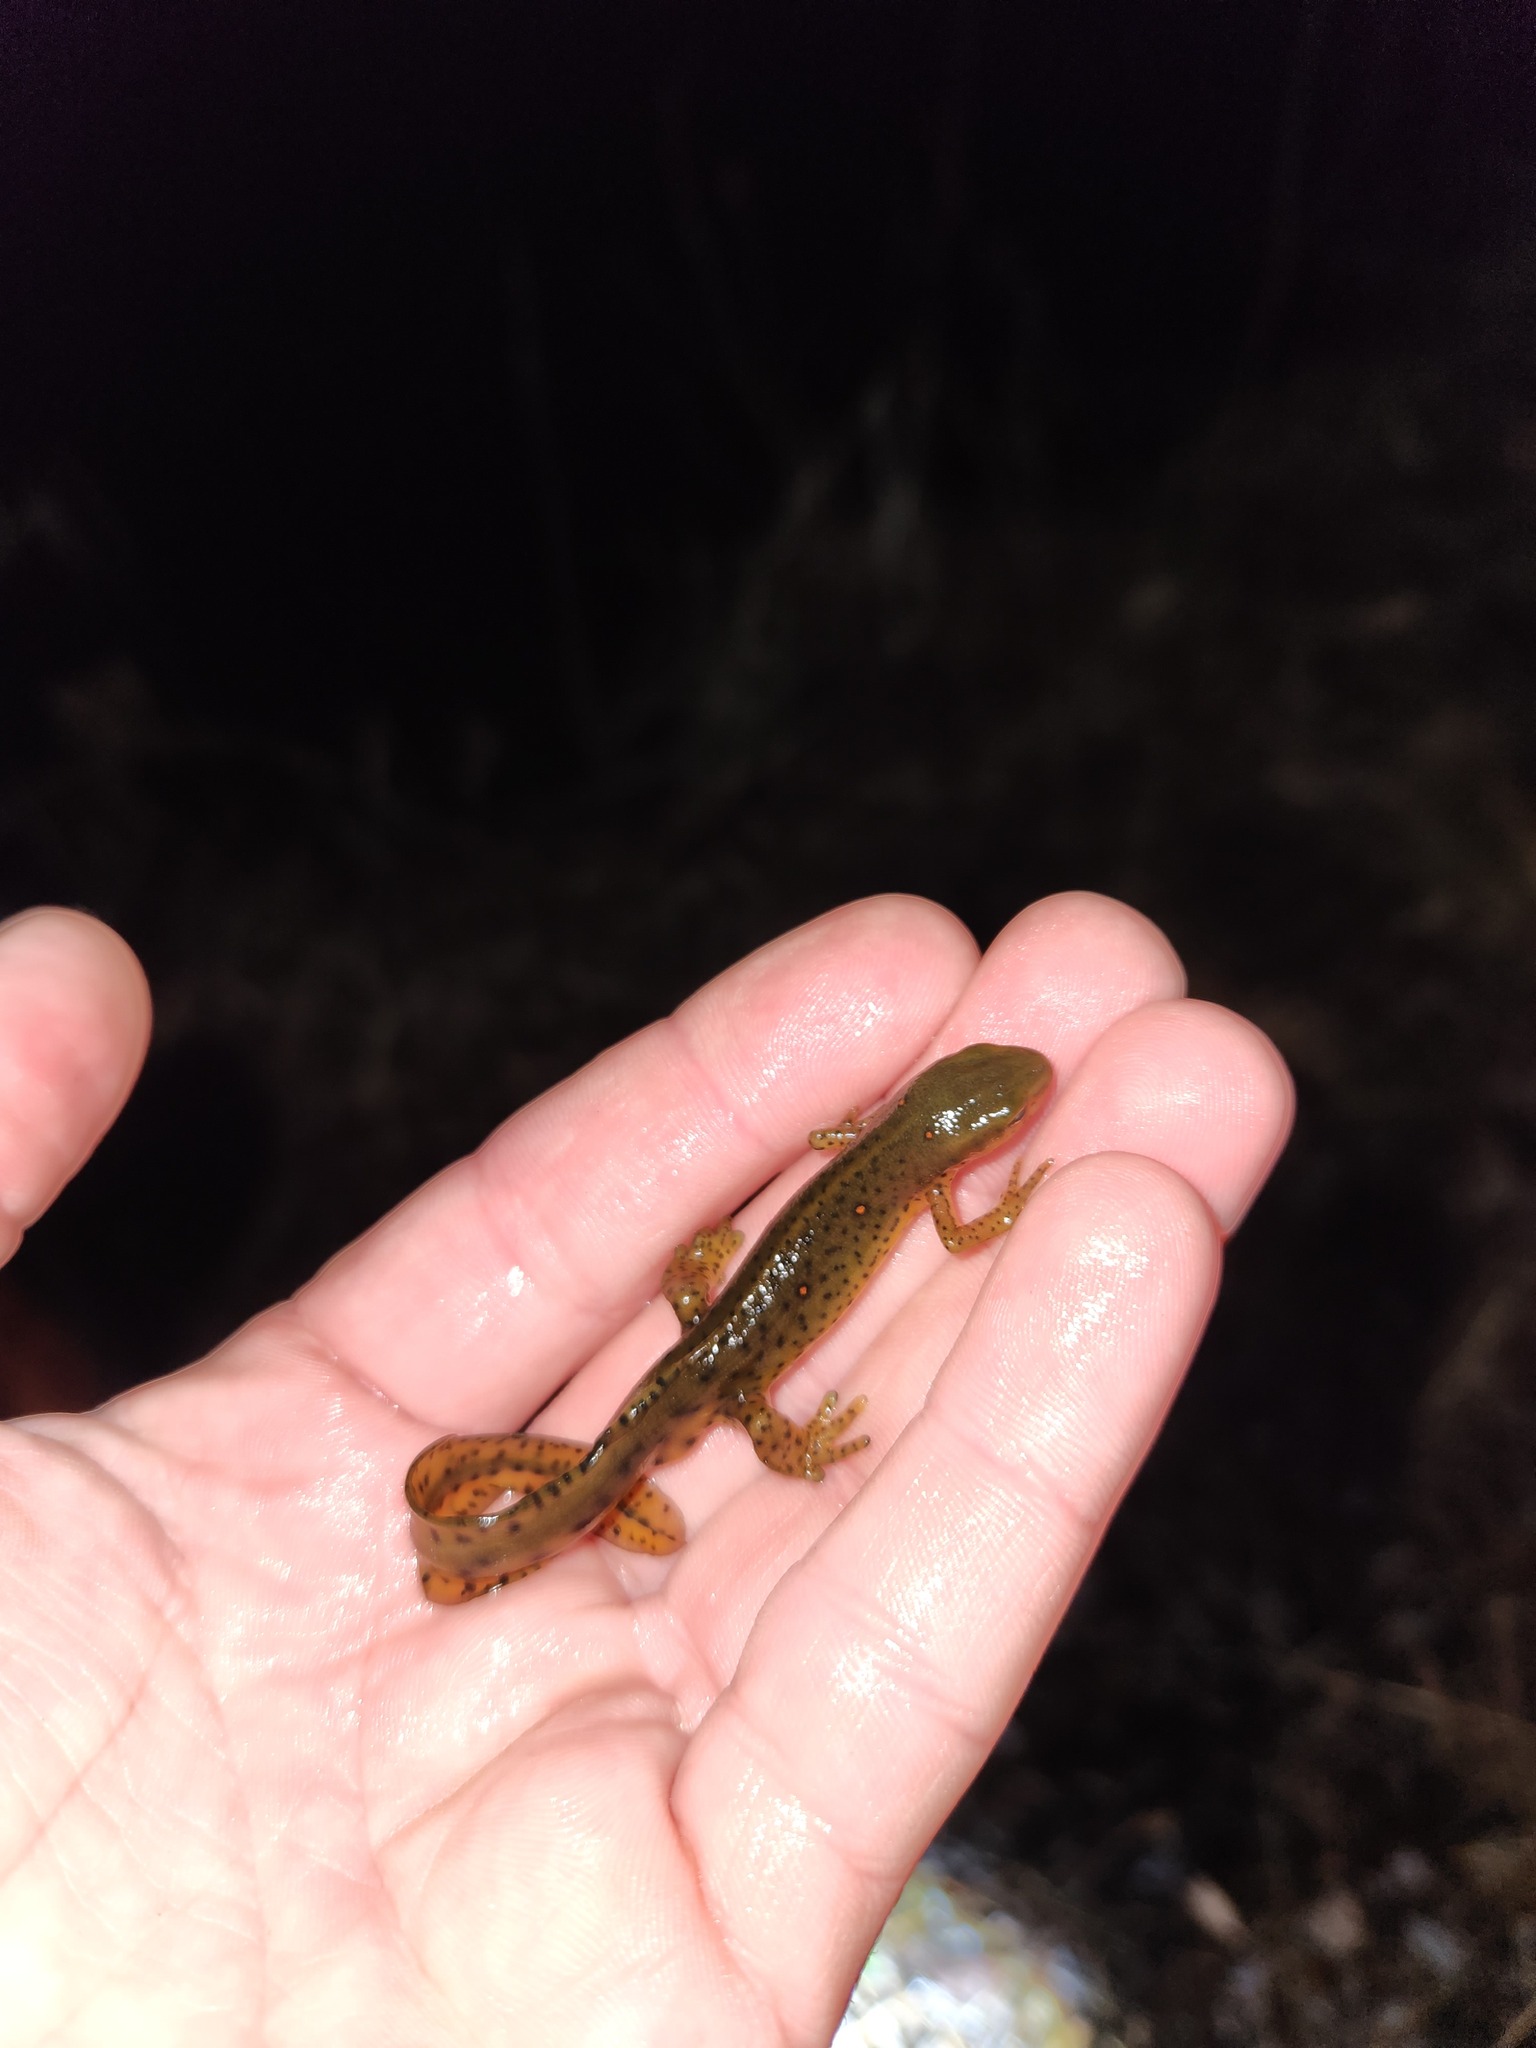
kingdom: Animalia
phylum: Chordata
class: Amphibia
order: Caudata
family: Salamandridae
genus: Notophthalmus
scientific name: Notophthalmus viridescens
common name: Eastern newt
